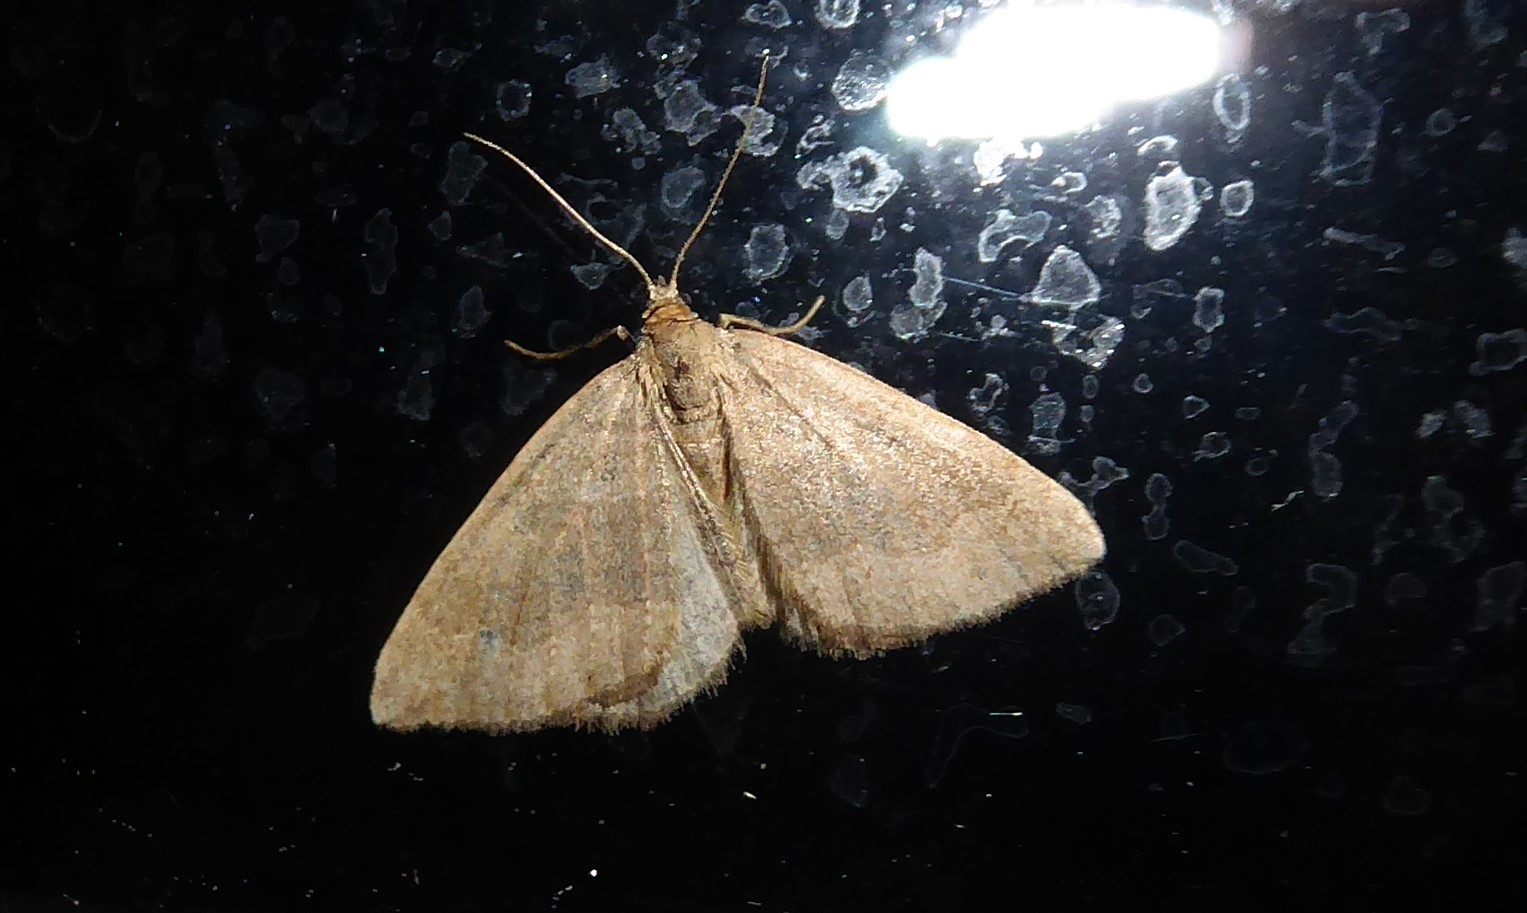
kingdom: Animalia
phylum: Arthropoda
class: Insecta
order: Lepidoptera
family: Geometridae
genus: Epyaxa
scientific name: Epyaxa rosearia
